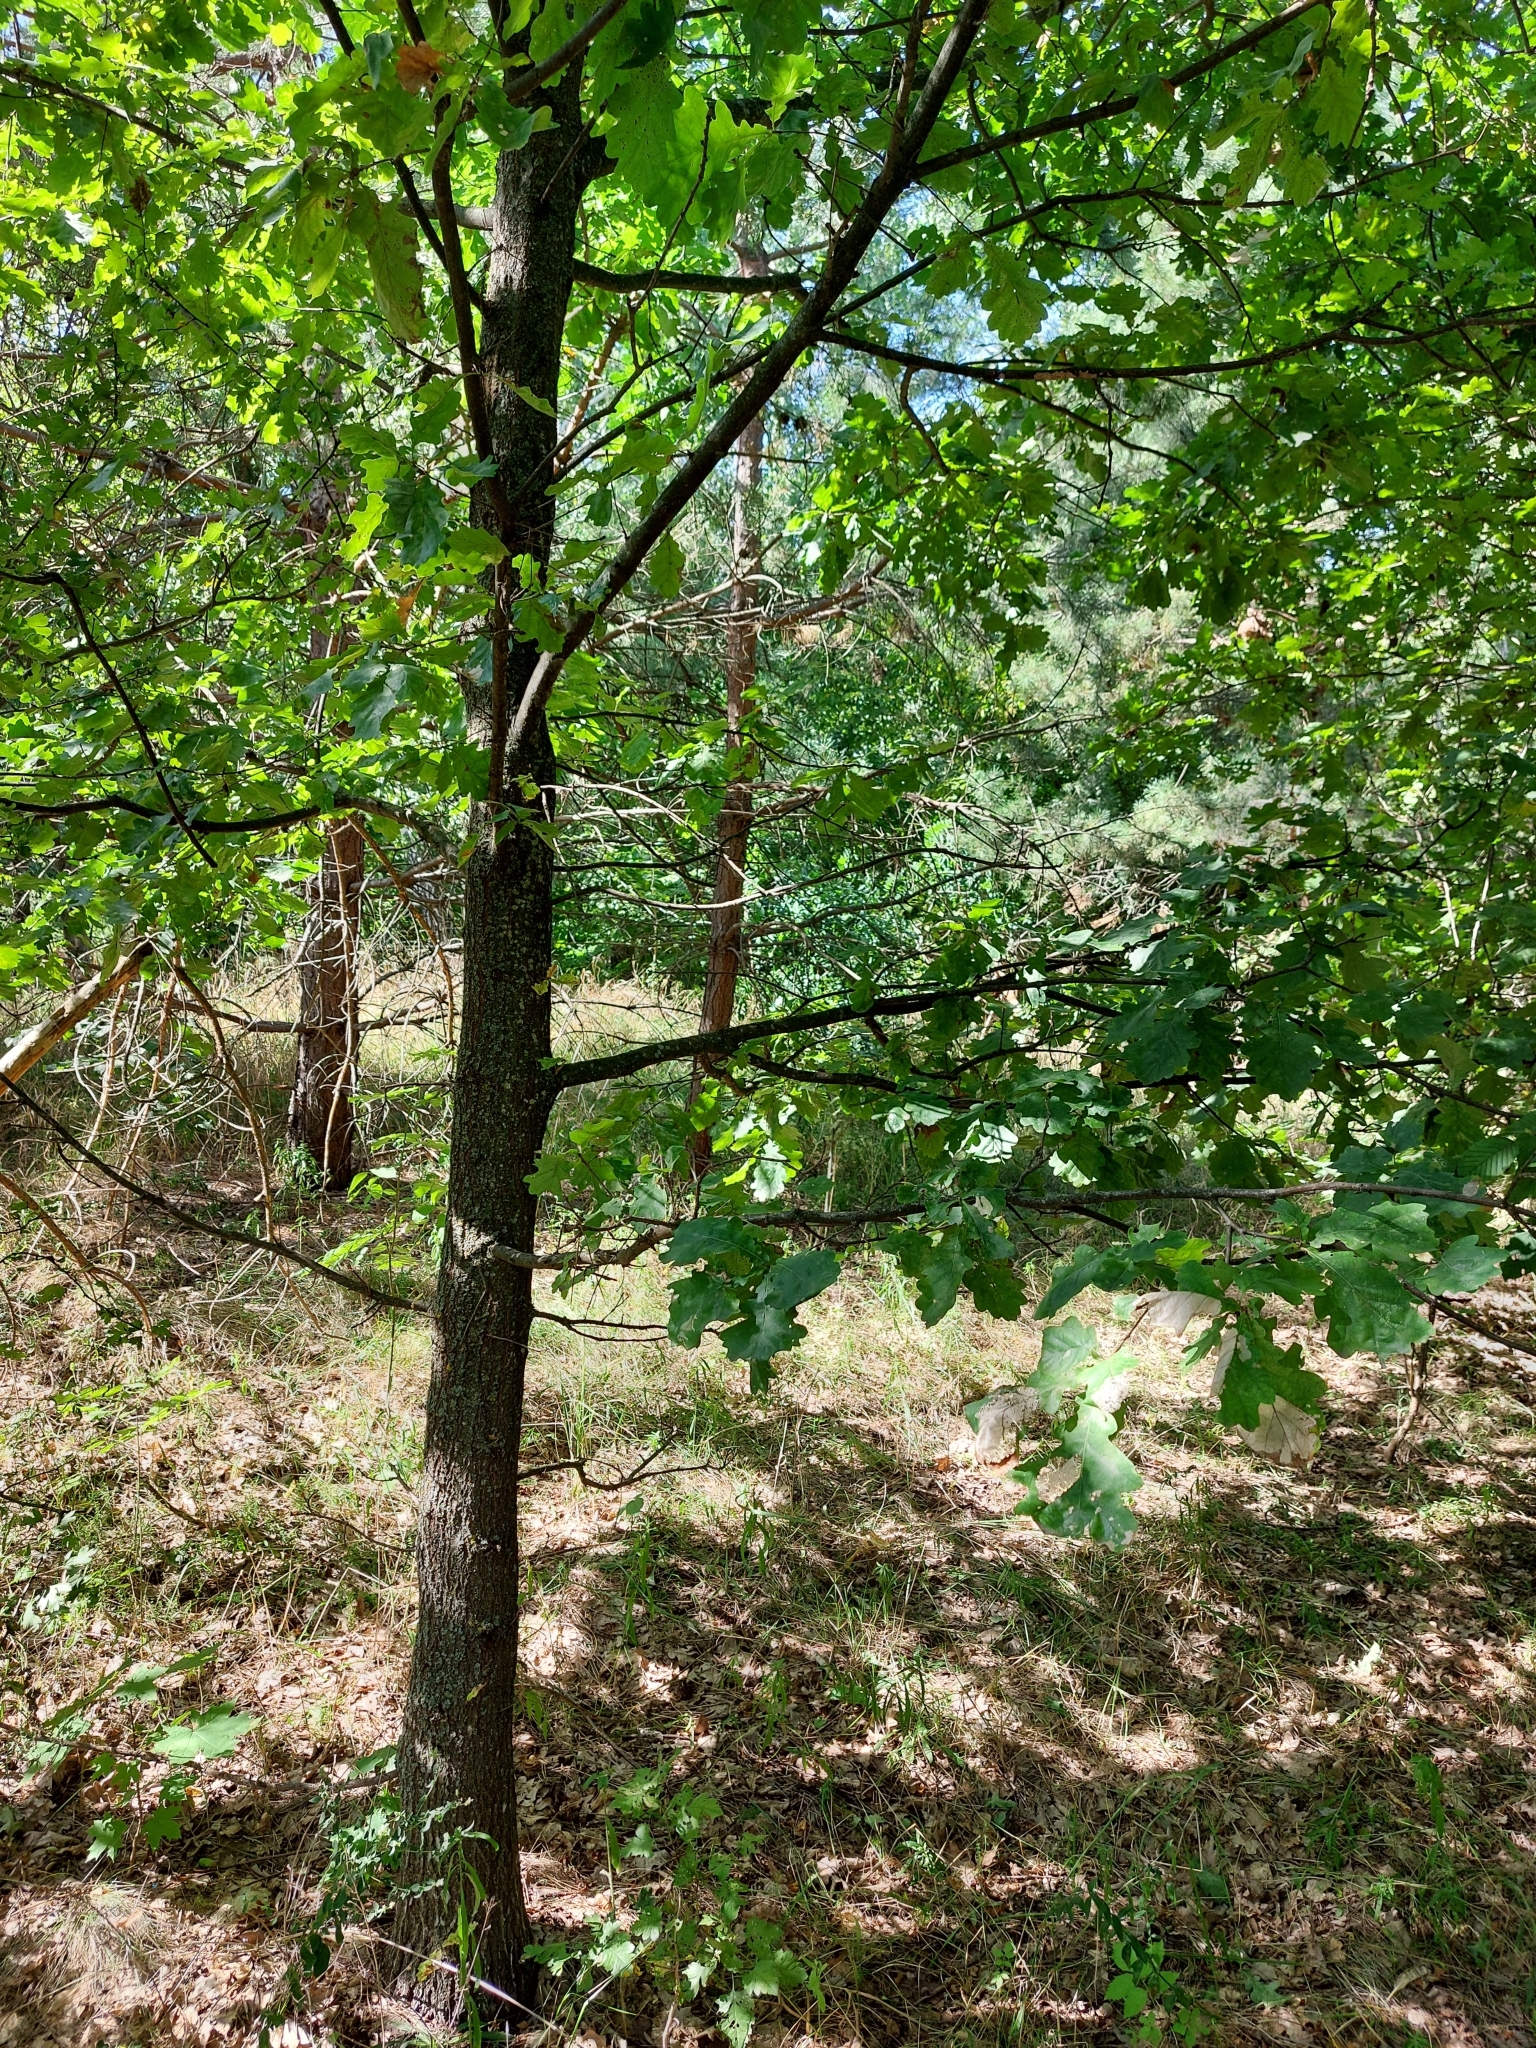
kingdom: Plantae
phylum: Tracheophyta
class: Magnoliopsida
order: Fagales
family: Fagaceae
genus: Quercus
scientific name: Quercus robur
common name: Pedunculate oak
